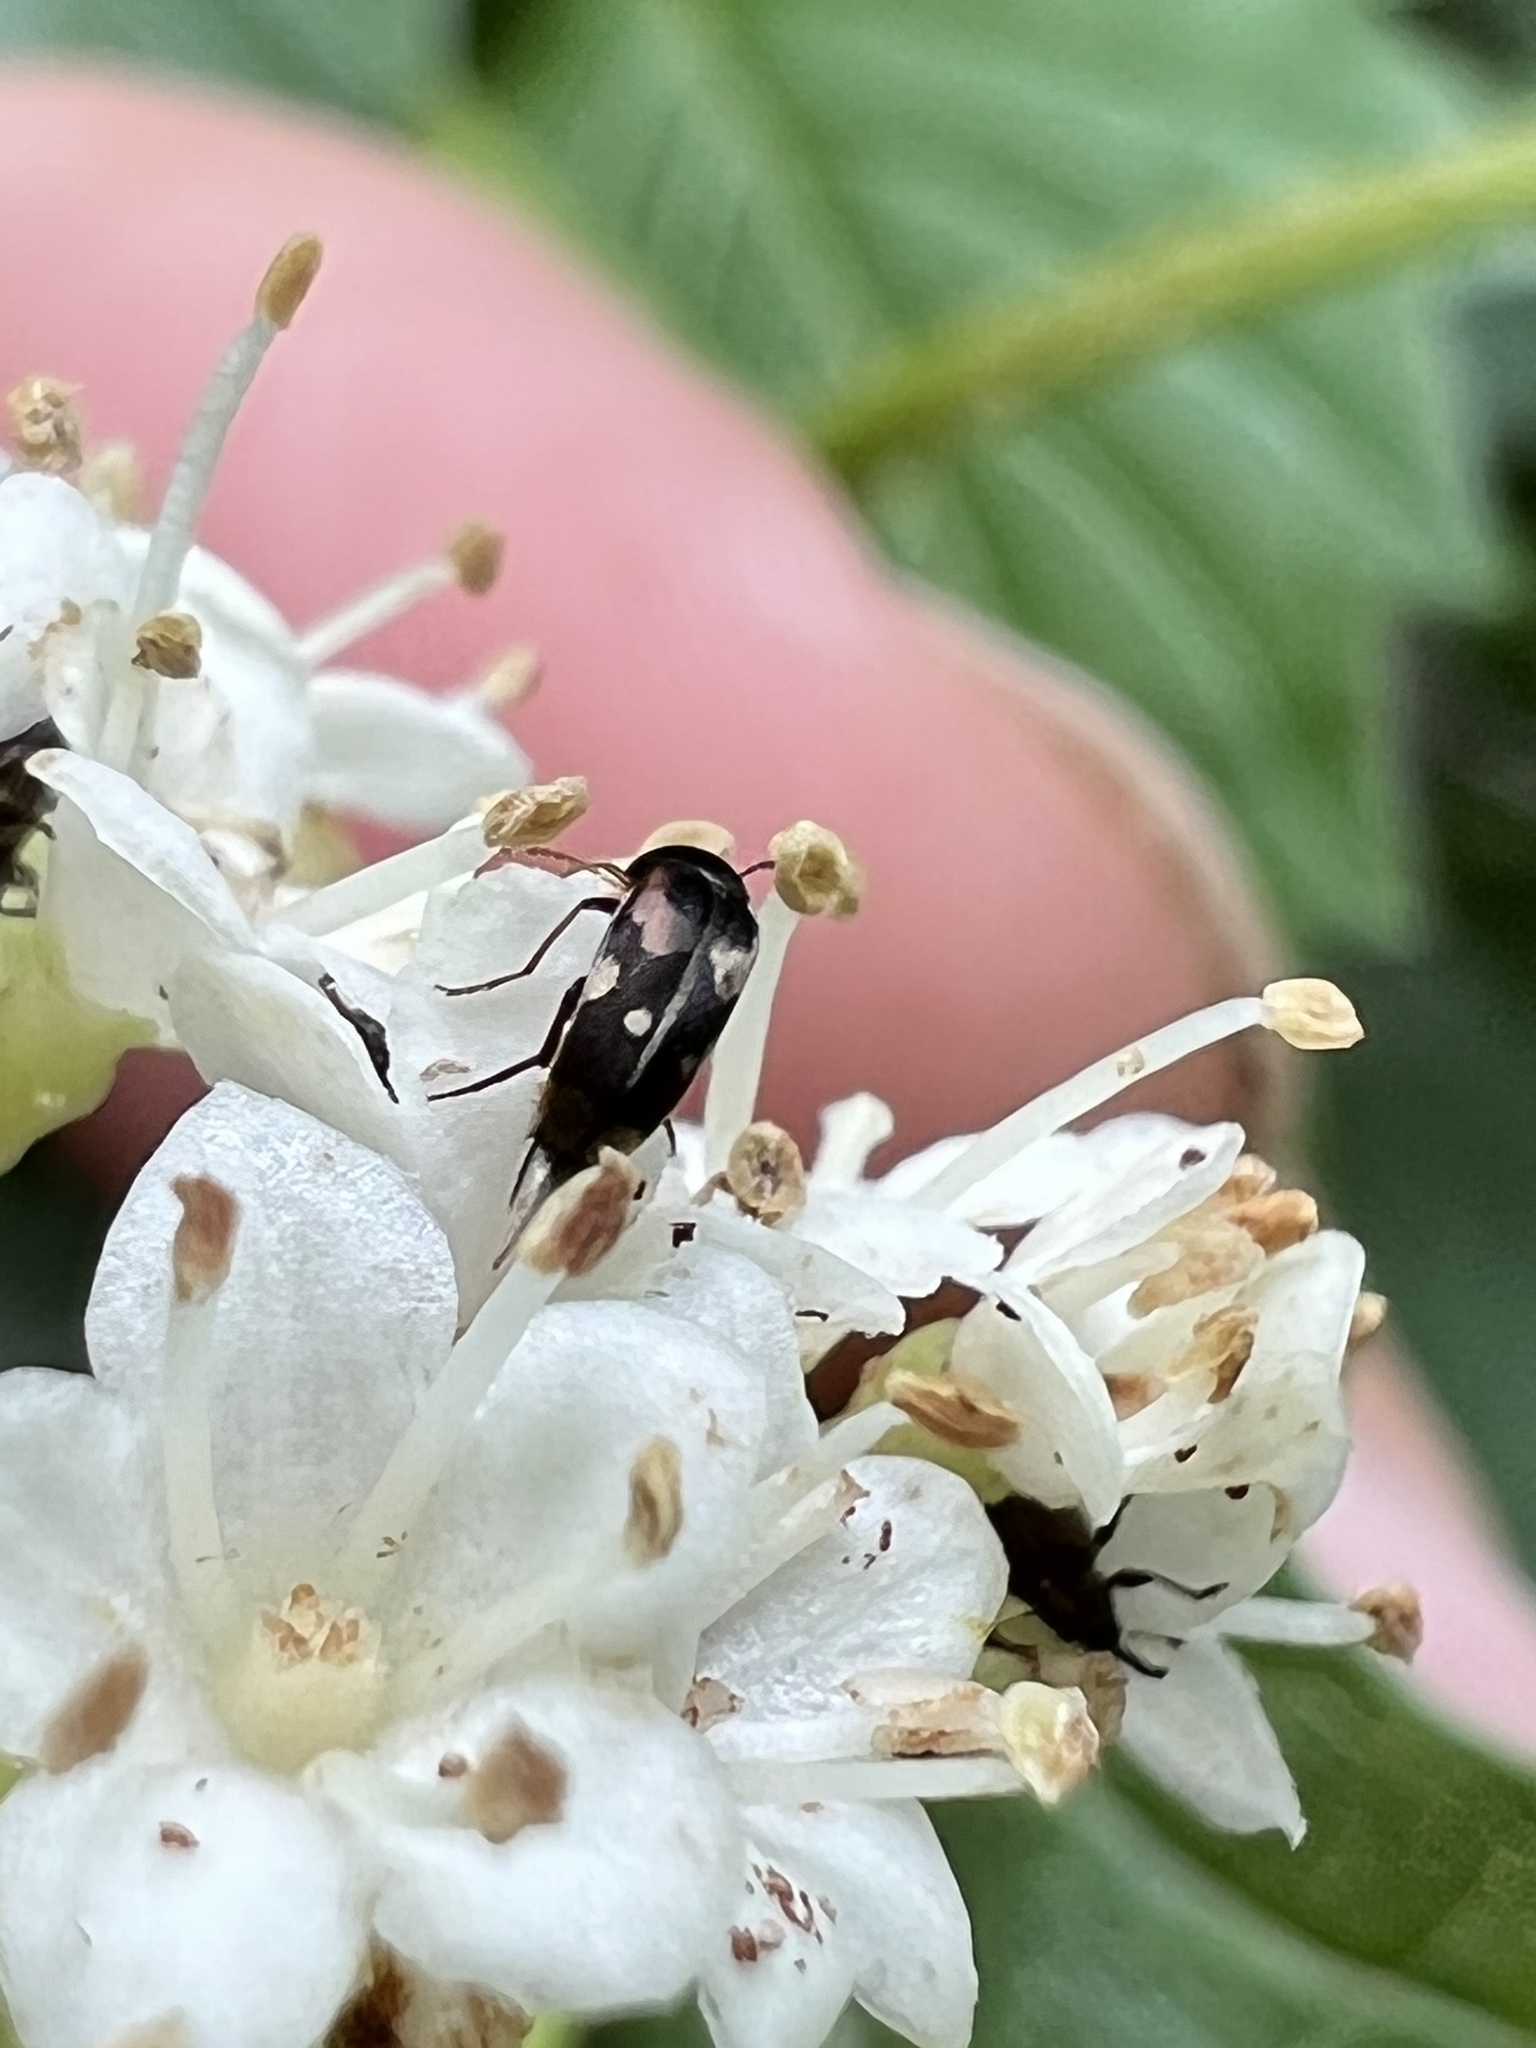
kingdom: Animalia
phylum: Arthropoda
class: Insecta
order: Coleoptera
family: Mordellidae
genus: Falsomordellistena
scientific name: Falsomordellistena pubescens
